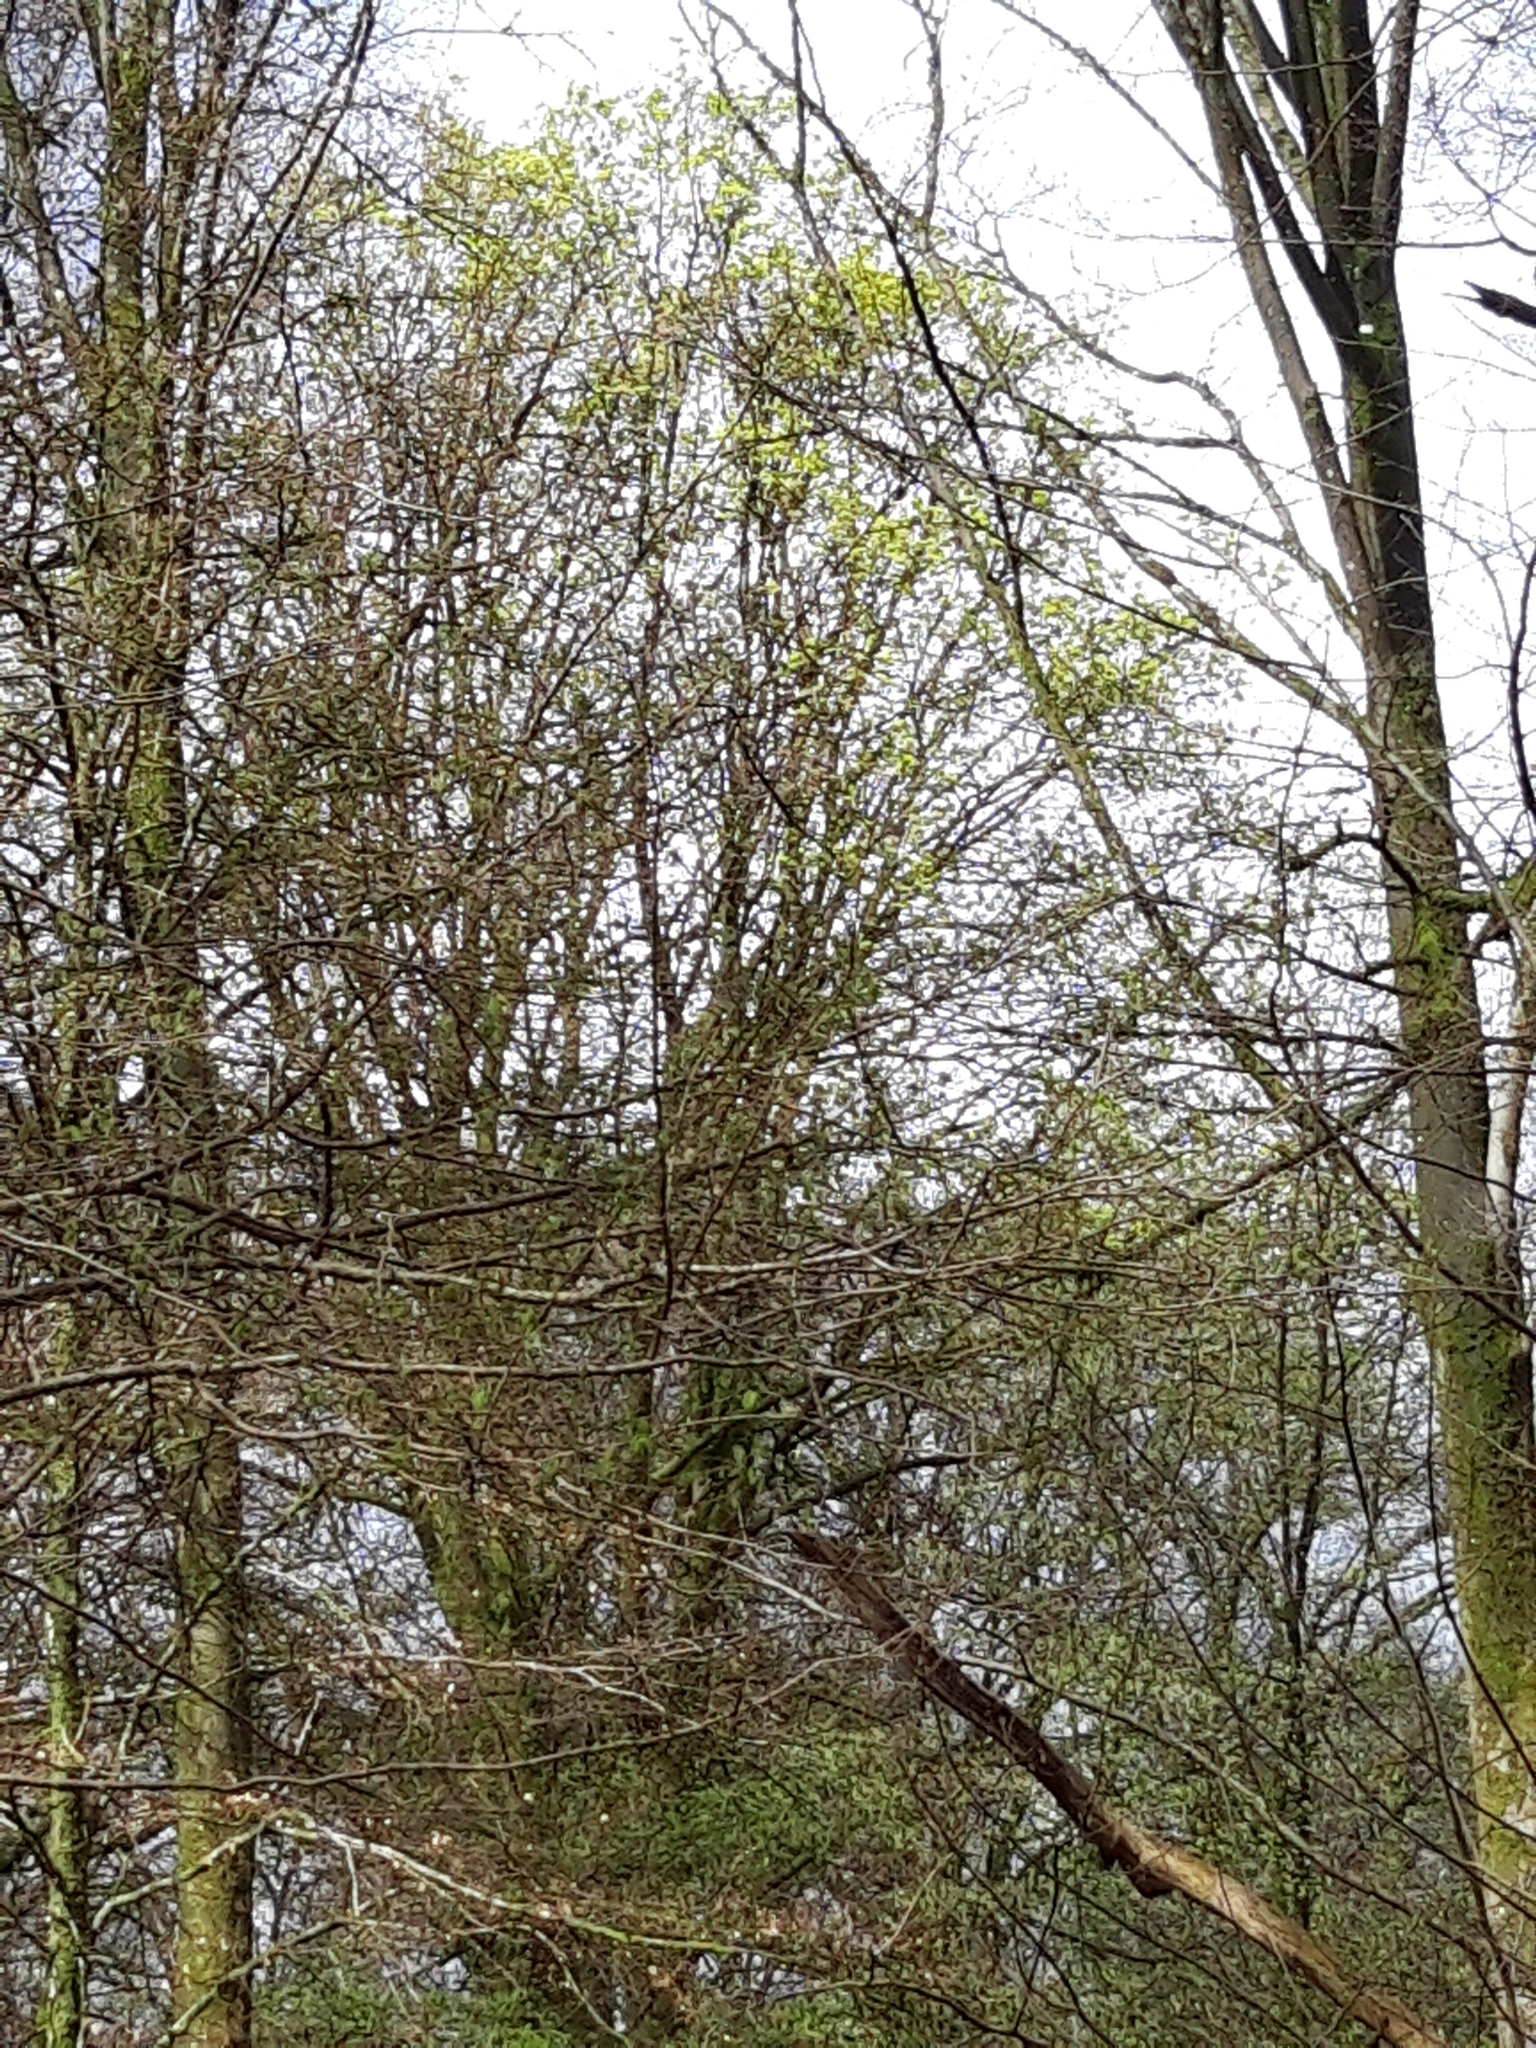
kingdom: Plantae
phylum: Tracheophyta
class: Magnoliopsida
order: Sapindales
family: Sapindaceae
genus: Acer
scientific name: Acer platanoides
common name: Norway maple
